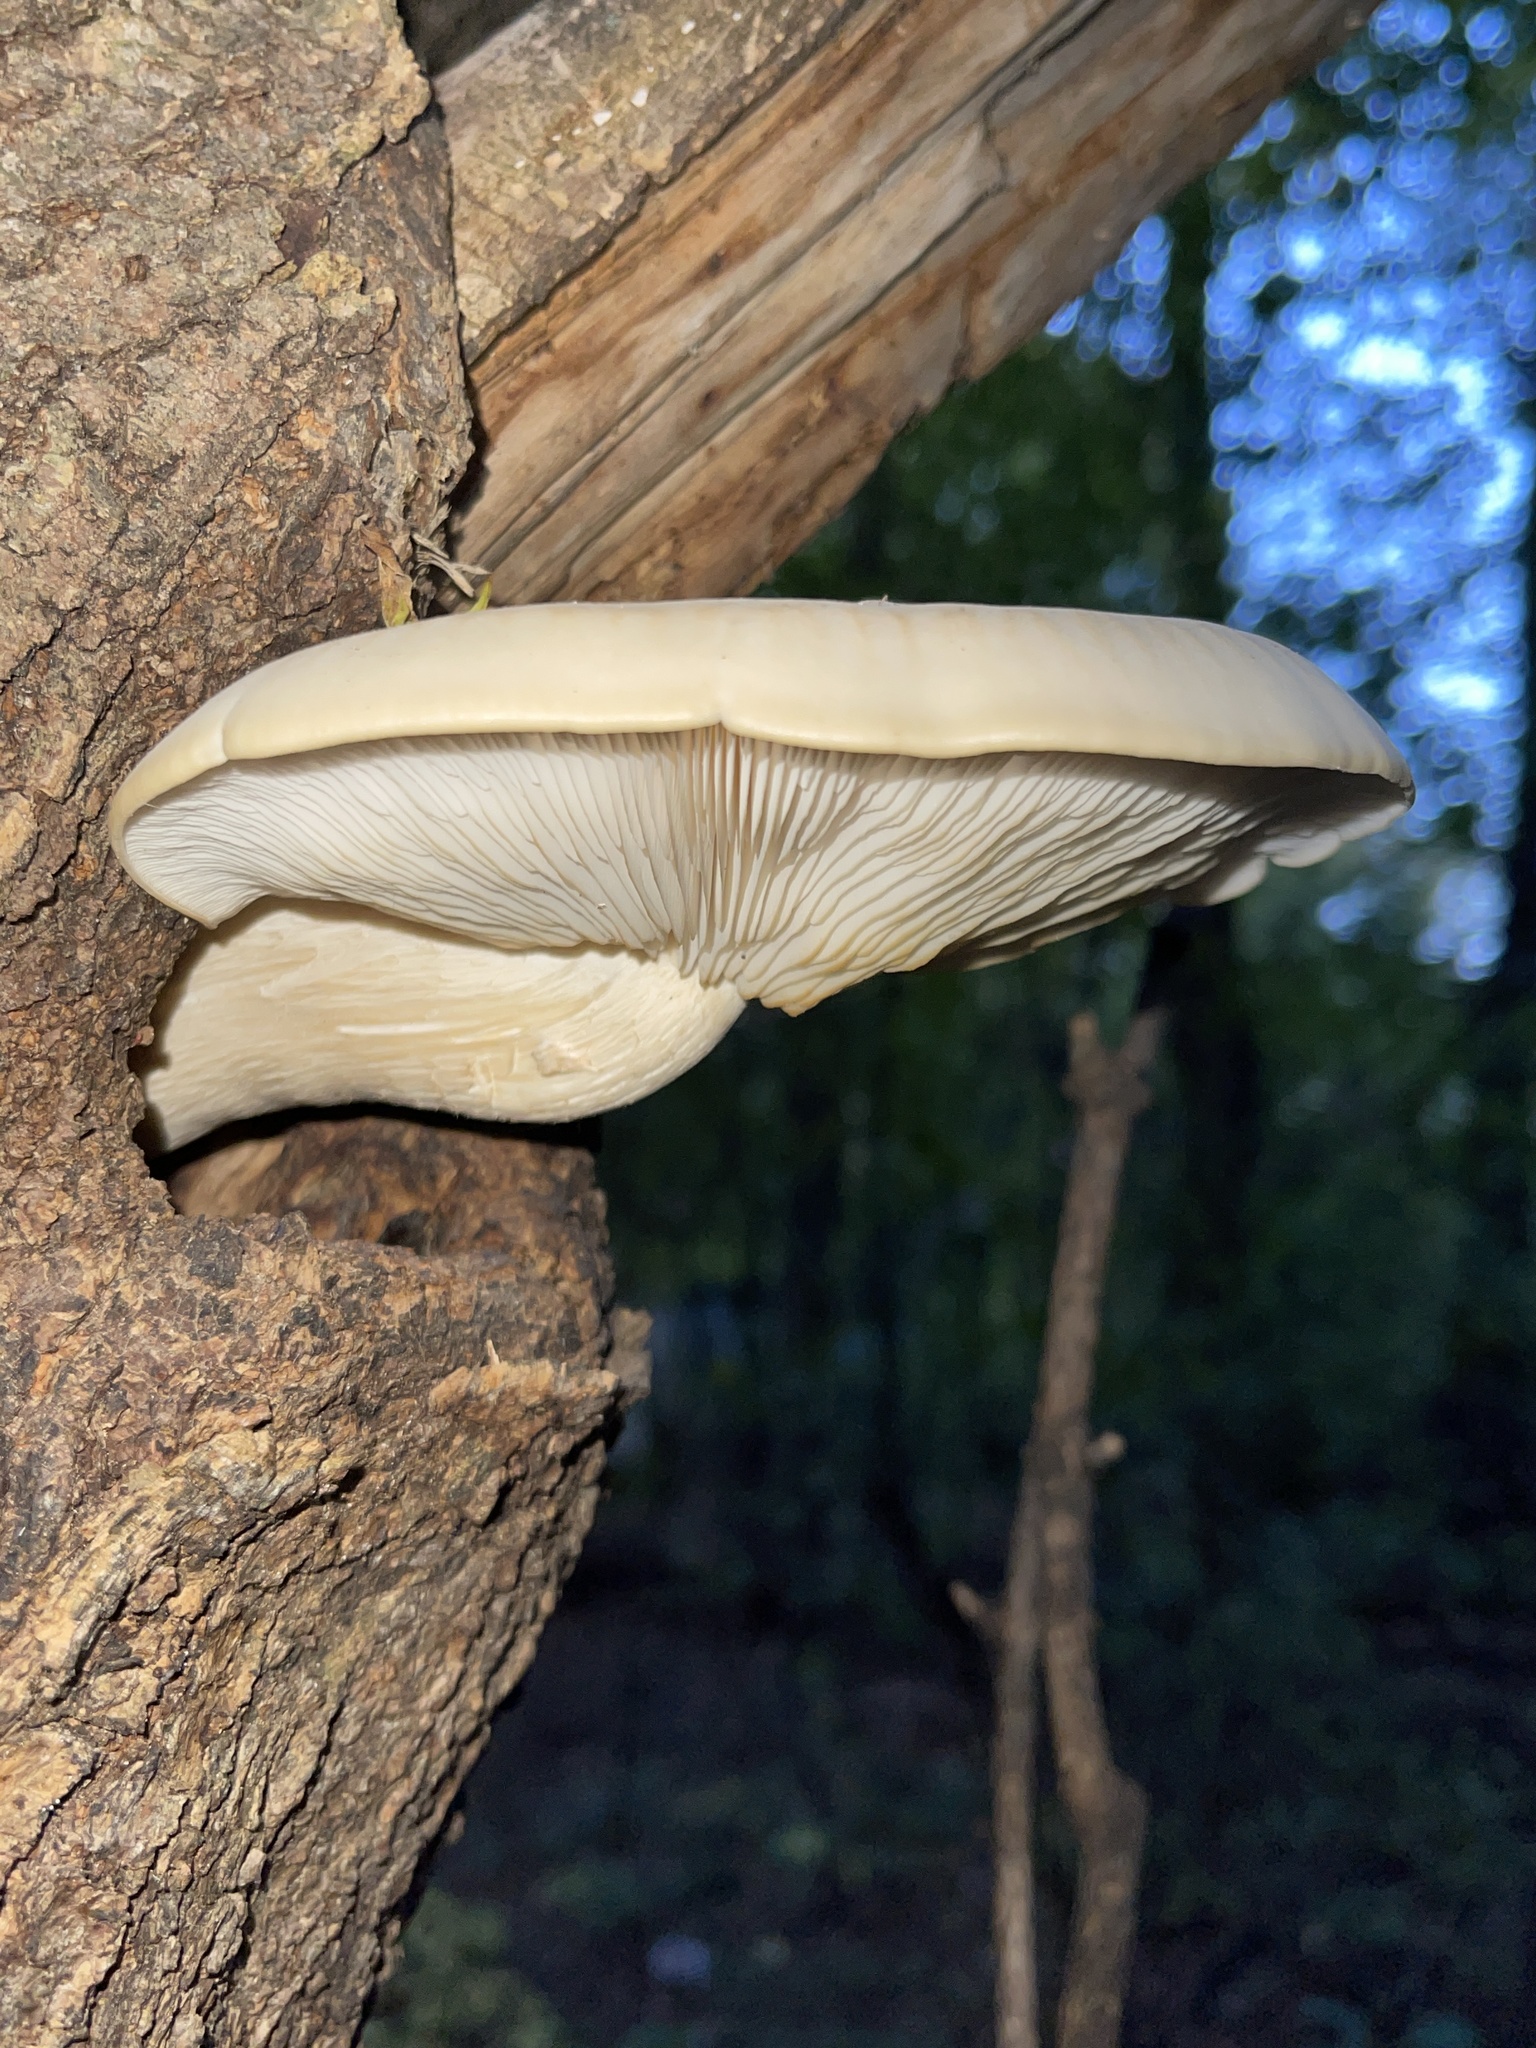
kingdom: Fungi
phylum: Basidiomycota
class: Agaricomycetes
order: Agaricales
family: Lyophyllaceae
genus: Hypsizygus
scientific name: Hypsizygus ulmarius
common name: Elm leech
